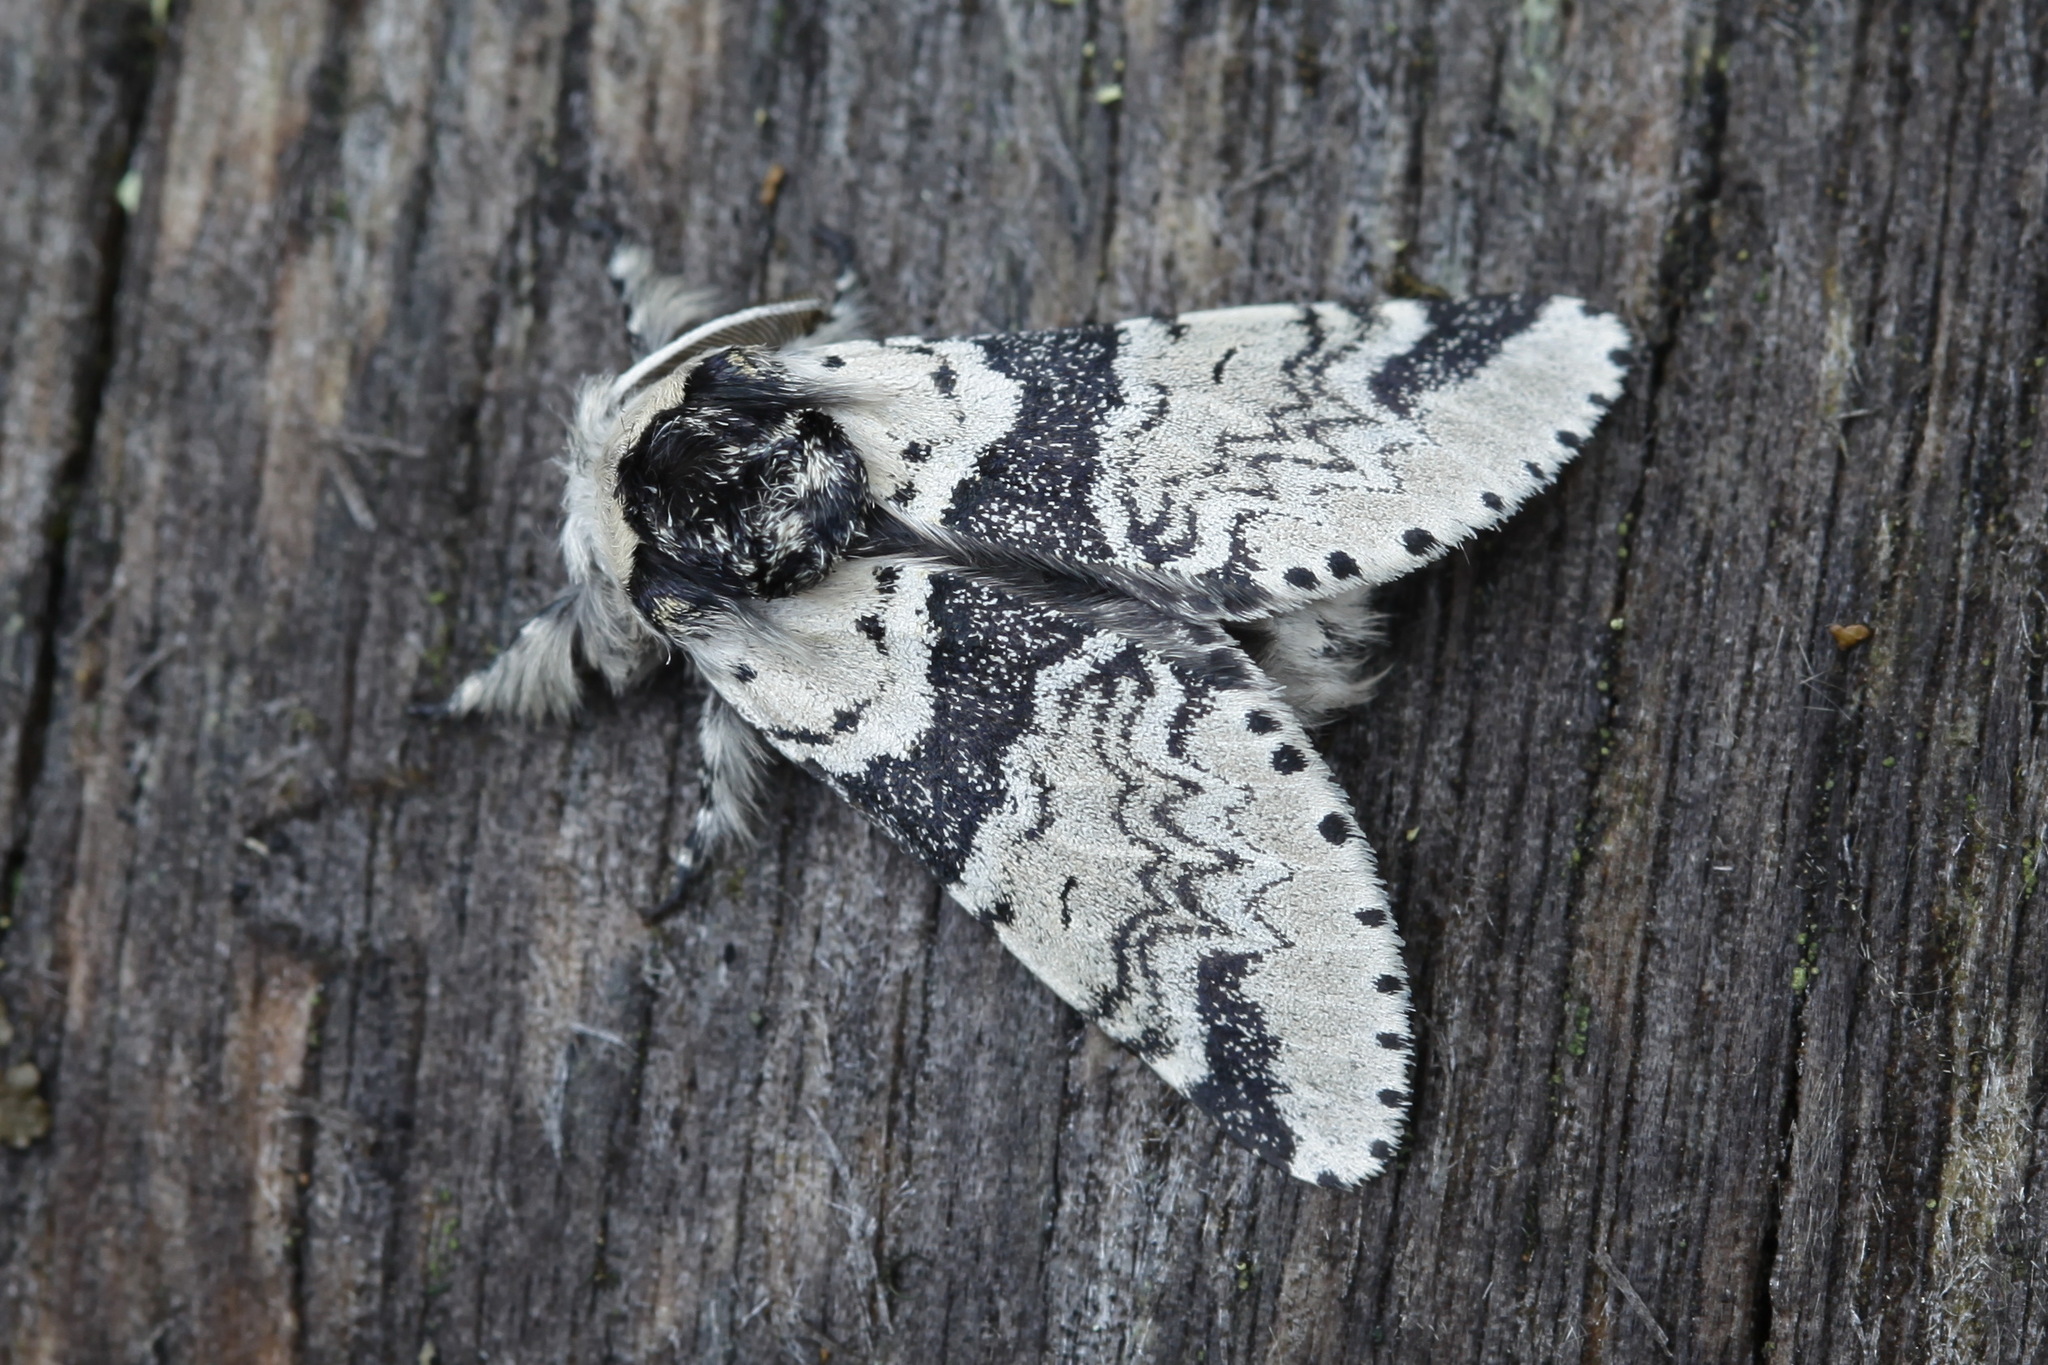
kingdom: Animalia
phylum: Arthropoda
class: Insecta
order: Lepidoptera
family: Notodontidae
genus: Furcula
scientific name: Furcula aeruginosa
